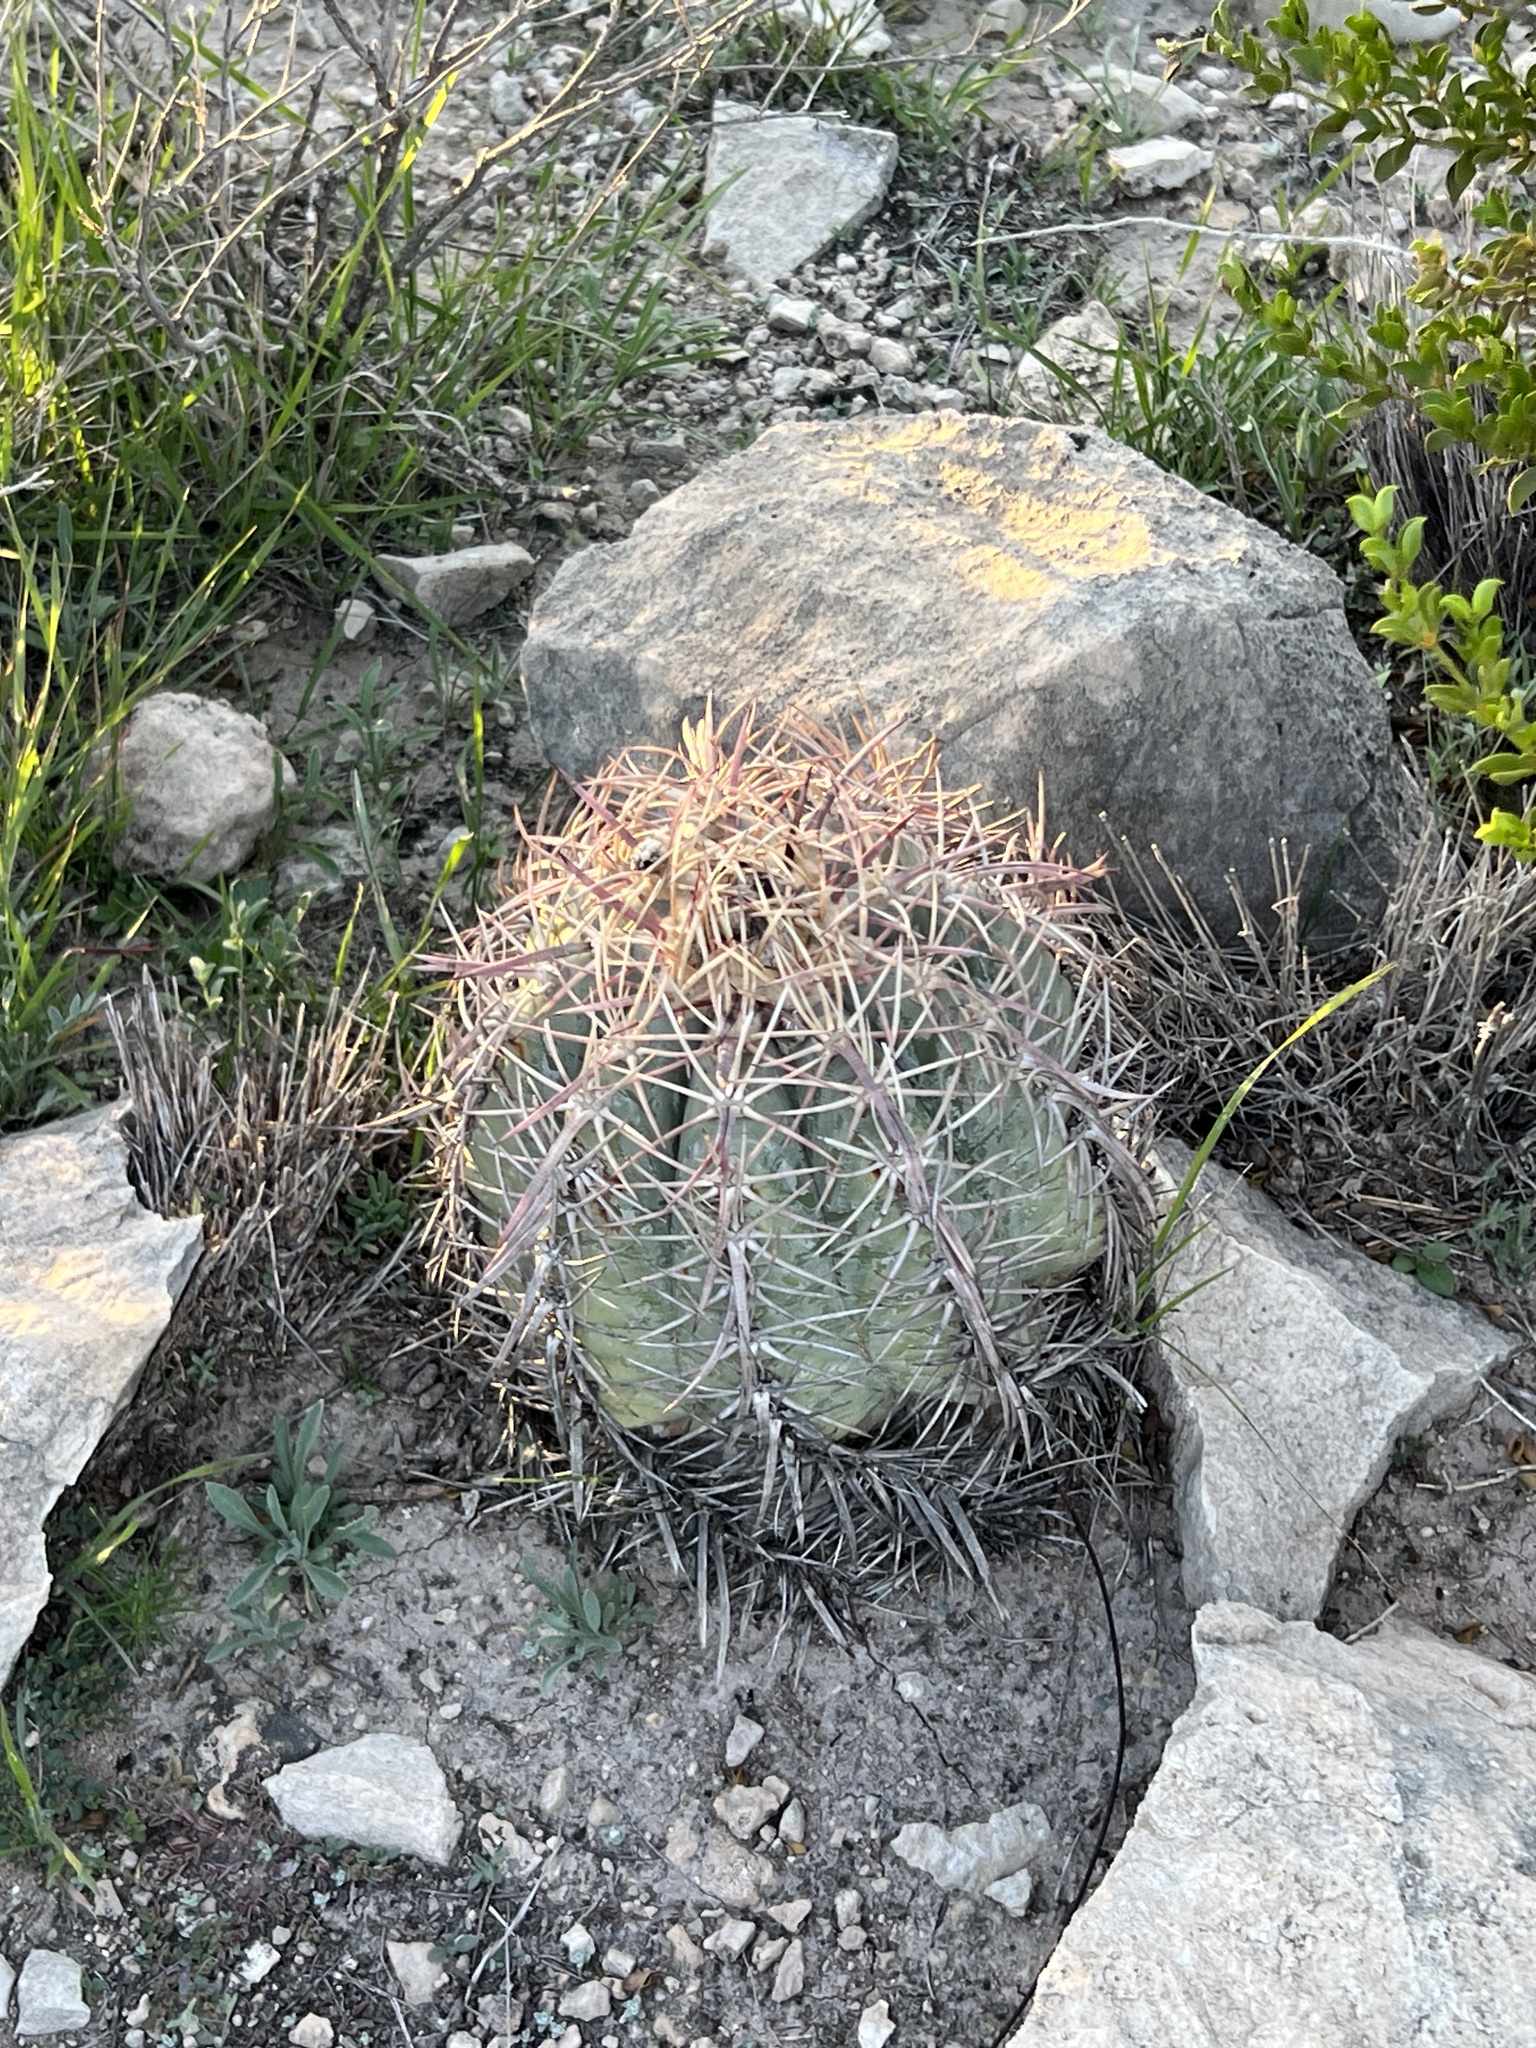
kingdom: Plantae
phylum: Tracheophyta
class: Magnoliopsida
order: Caryophyllales
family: Cactaceae
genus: Echinocactus
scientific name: Echinocactus horizonthalonius
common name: Devilshead
